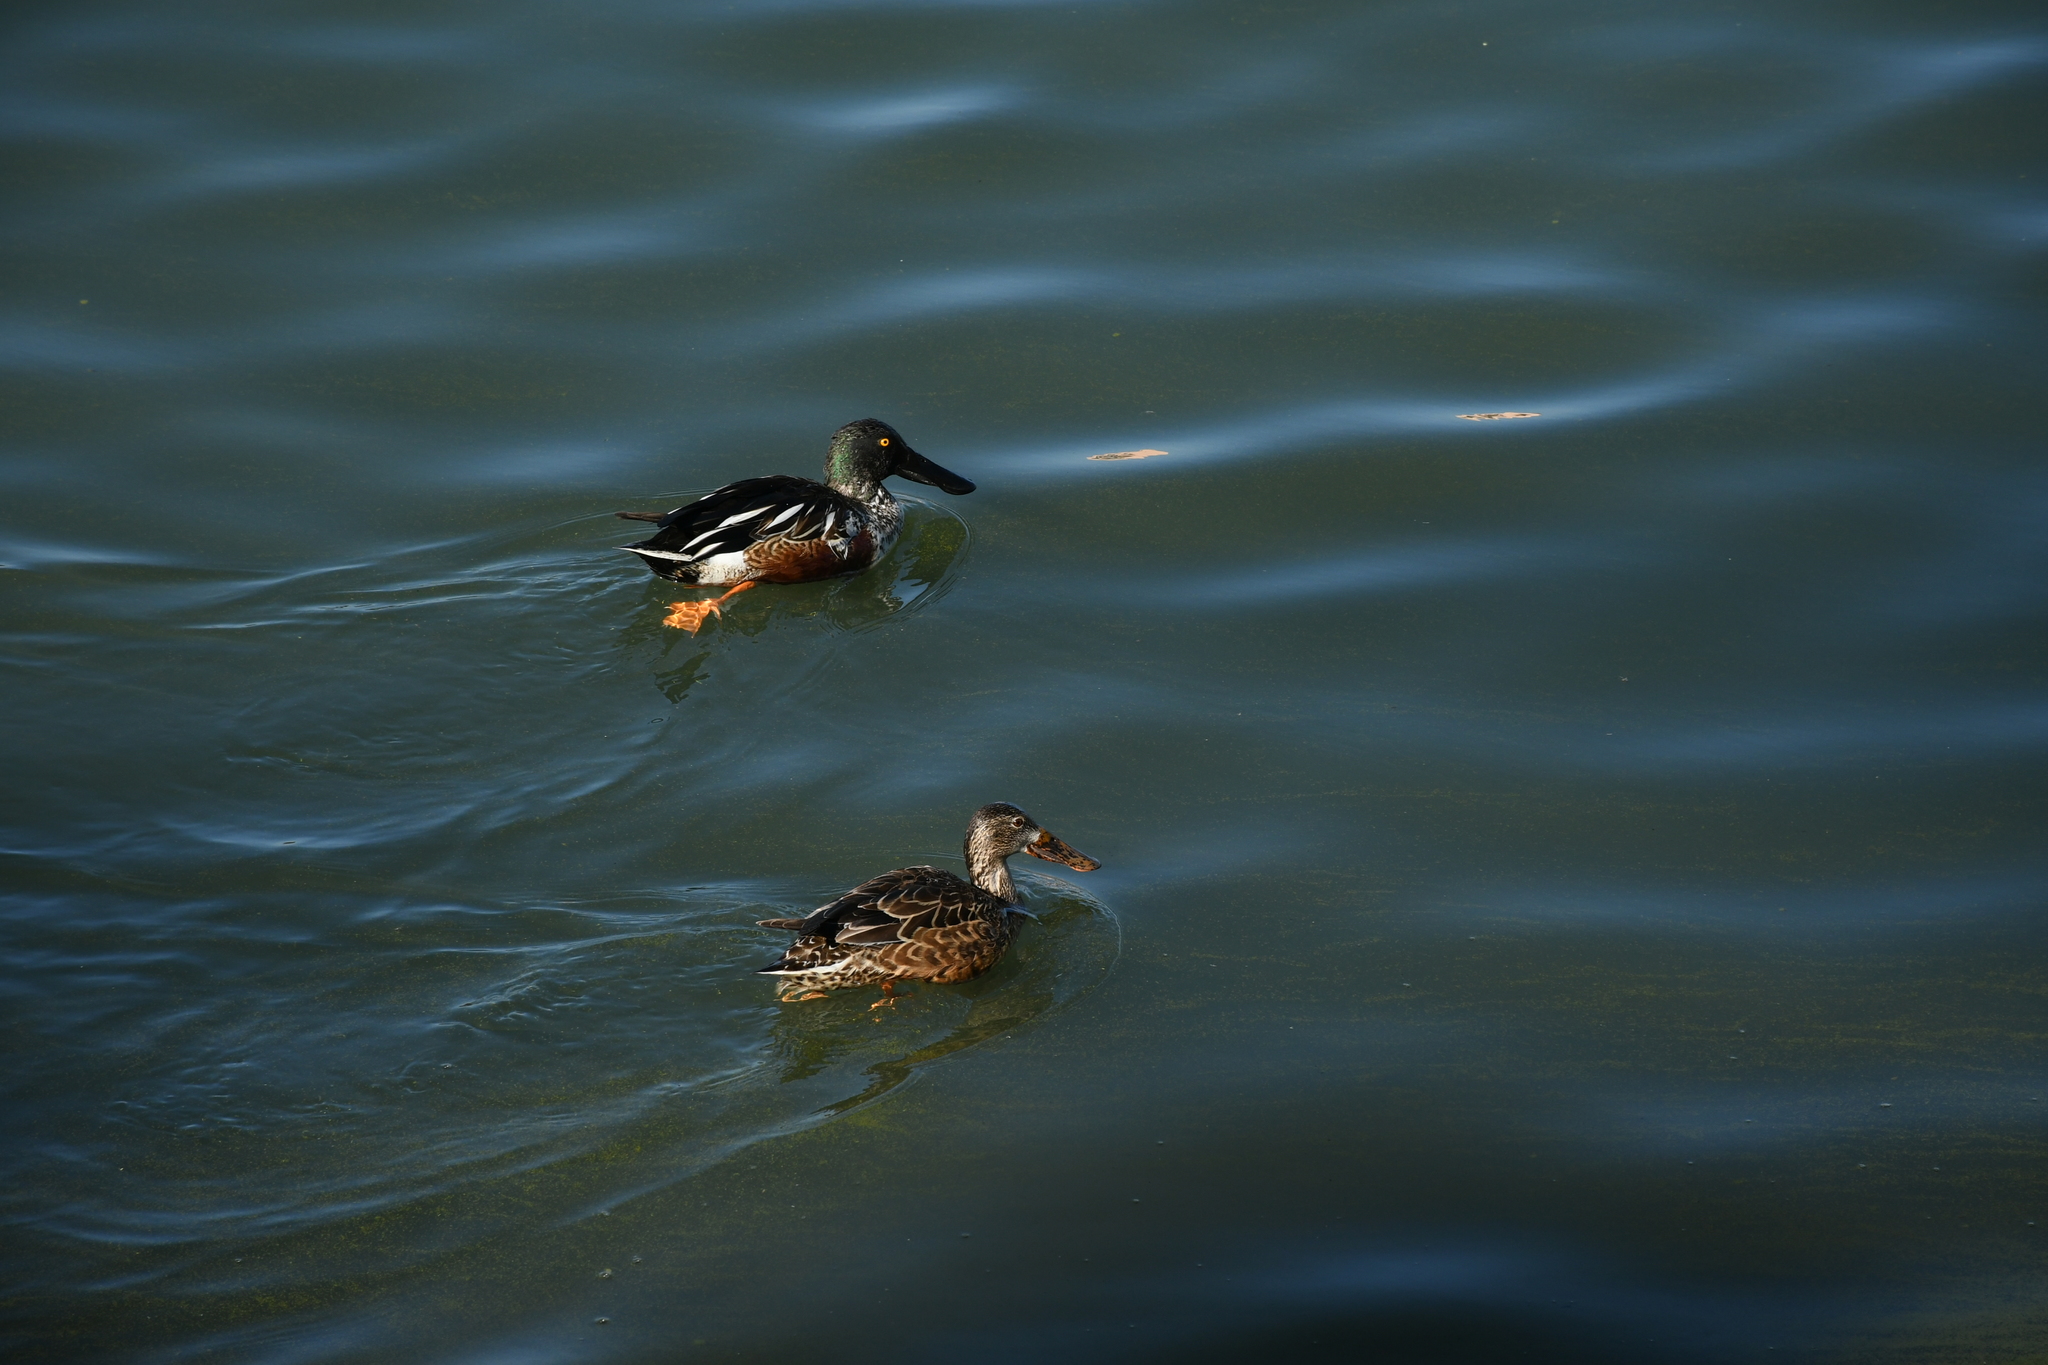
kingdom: Animalia
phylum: Chordata
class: Aves
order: Anseriformes
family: Anatidae
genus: Spatula
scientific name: Spatula clypeata
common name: Northern shoveler
